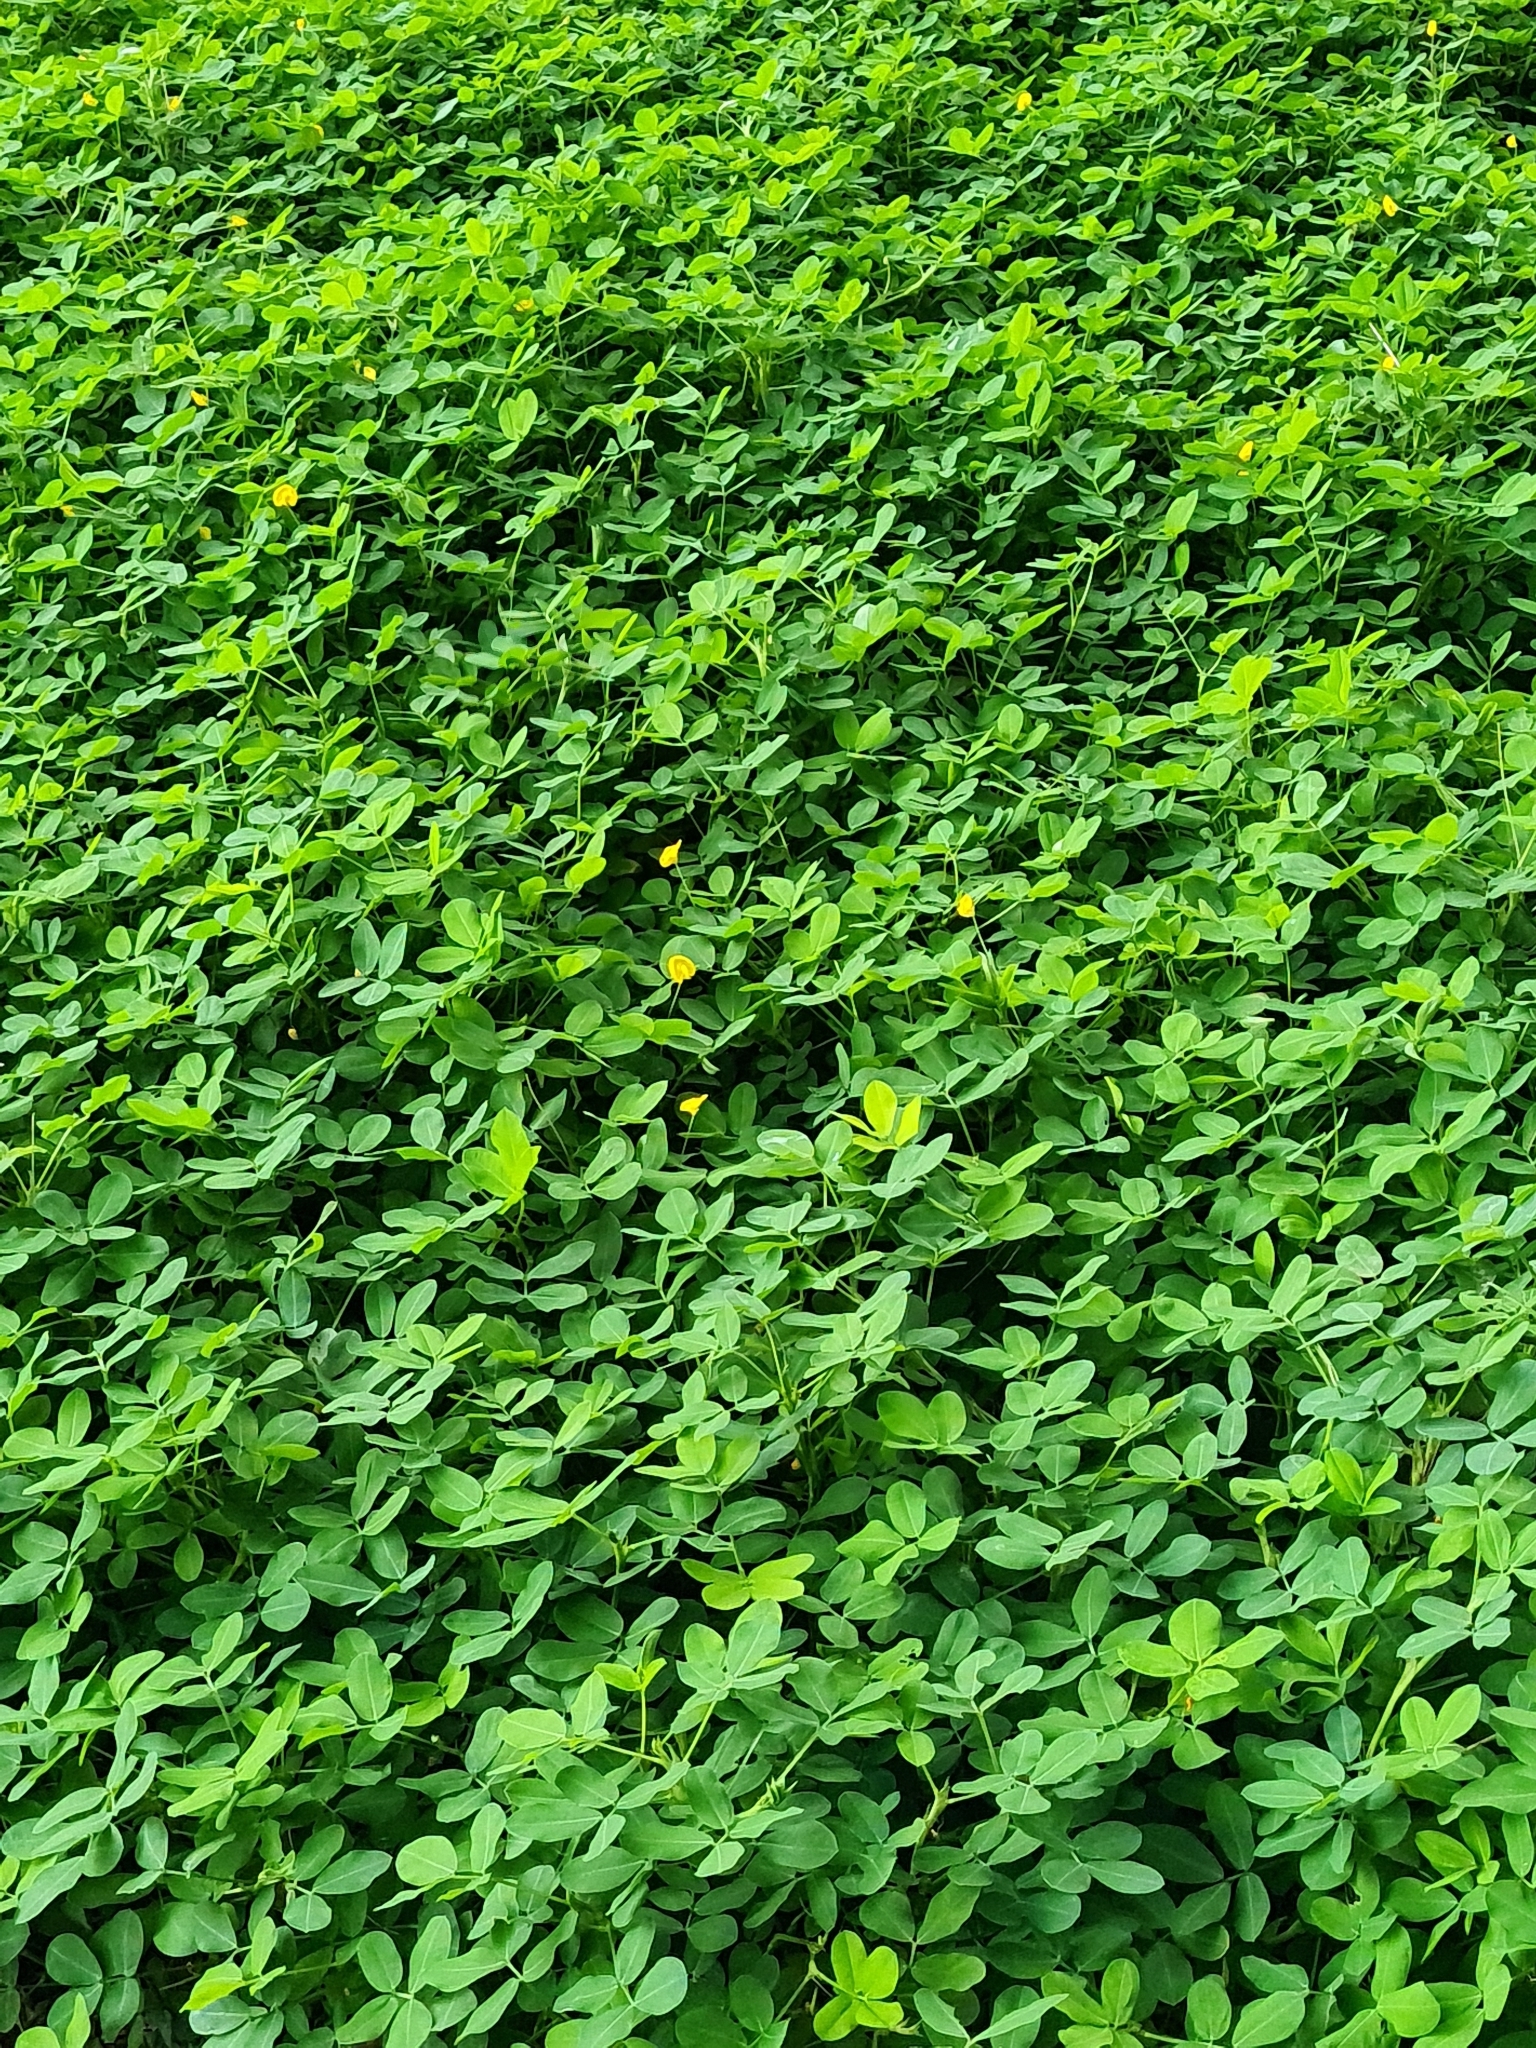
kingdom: Plantae
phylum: Tracheophyta
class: Magnoliopsida
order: Fabales
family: Fabaceae
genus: Arachis
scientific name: Arachis pintoi
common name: Pinto peanut
